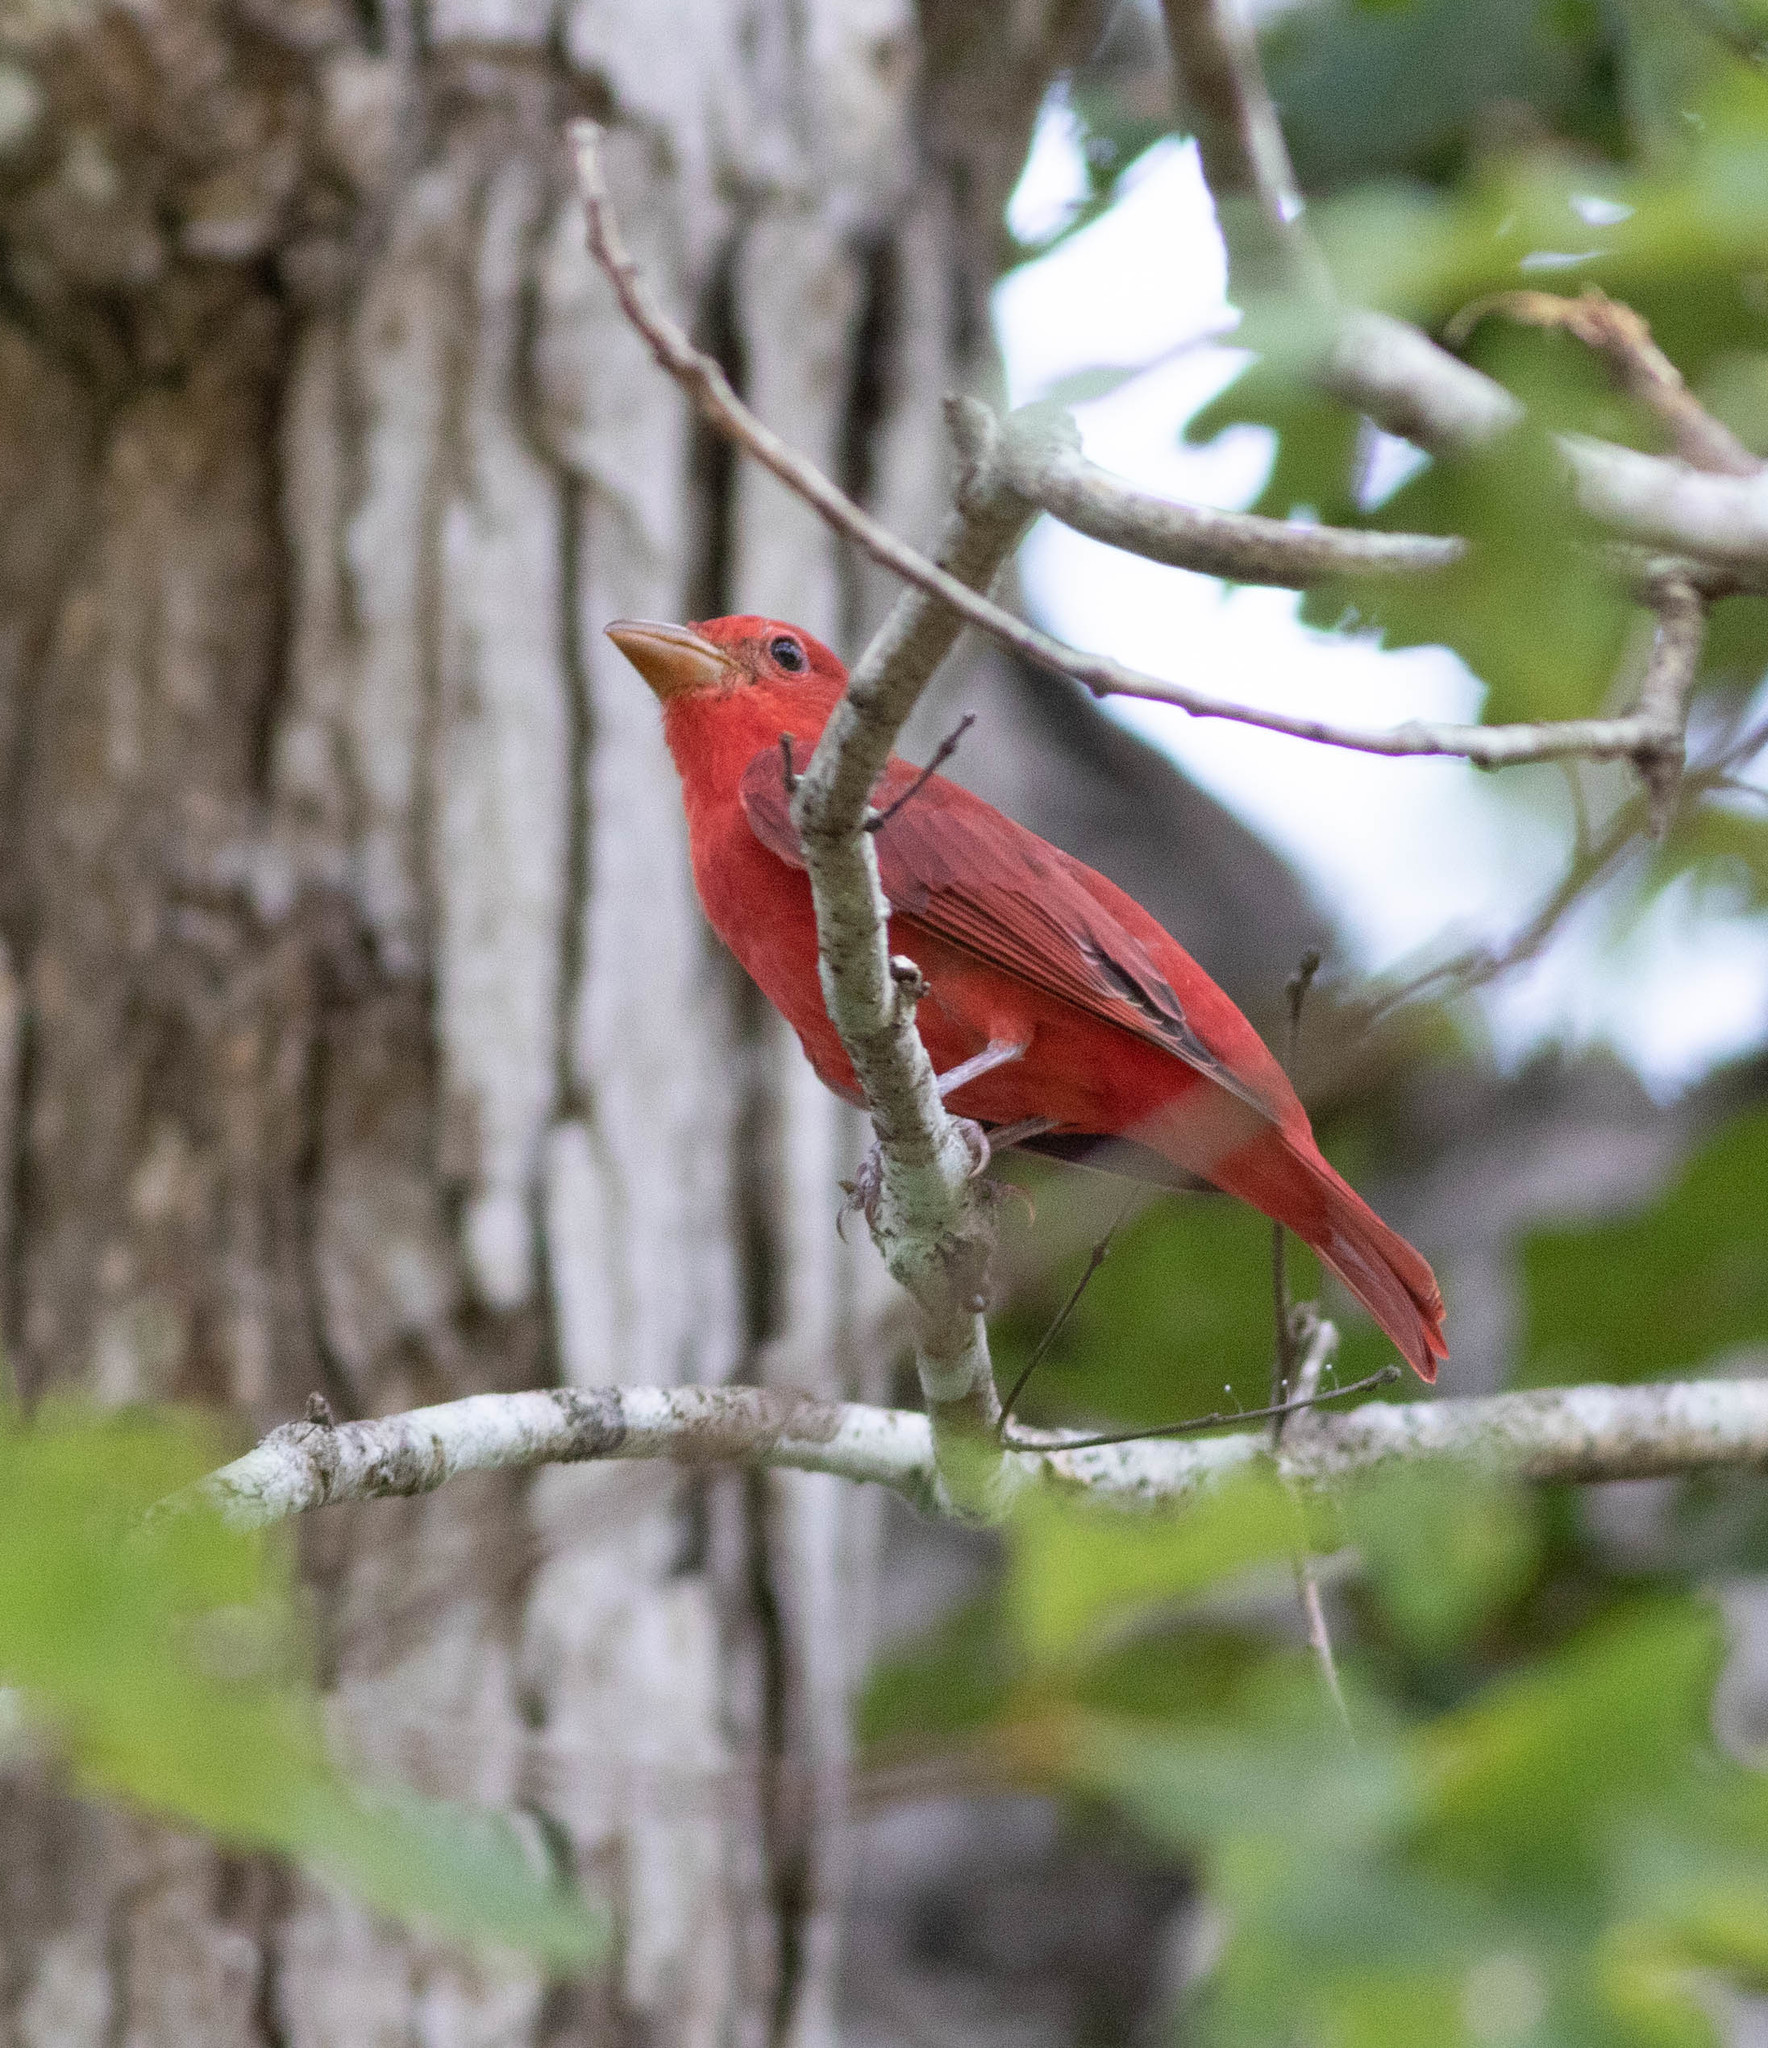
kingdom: Animalia
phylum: Chordata
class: Aves
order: Passeriformes
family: Cardinalidae
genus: Piranga
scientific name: Piranga rubra
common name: Summer tanager
